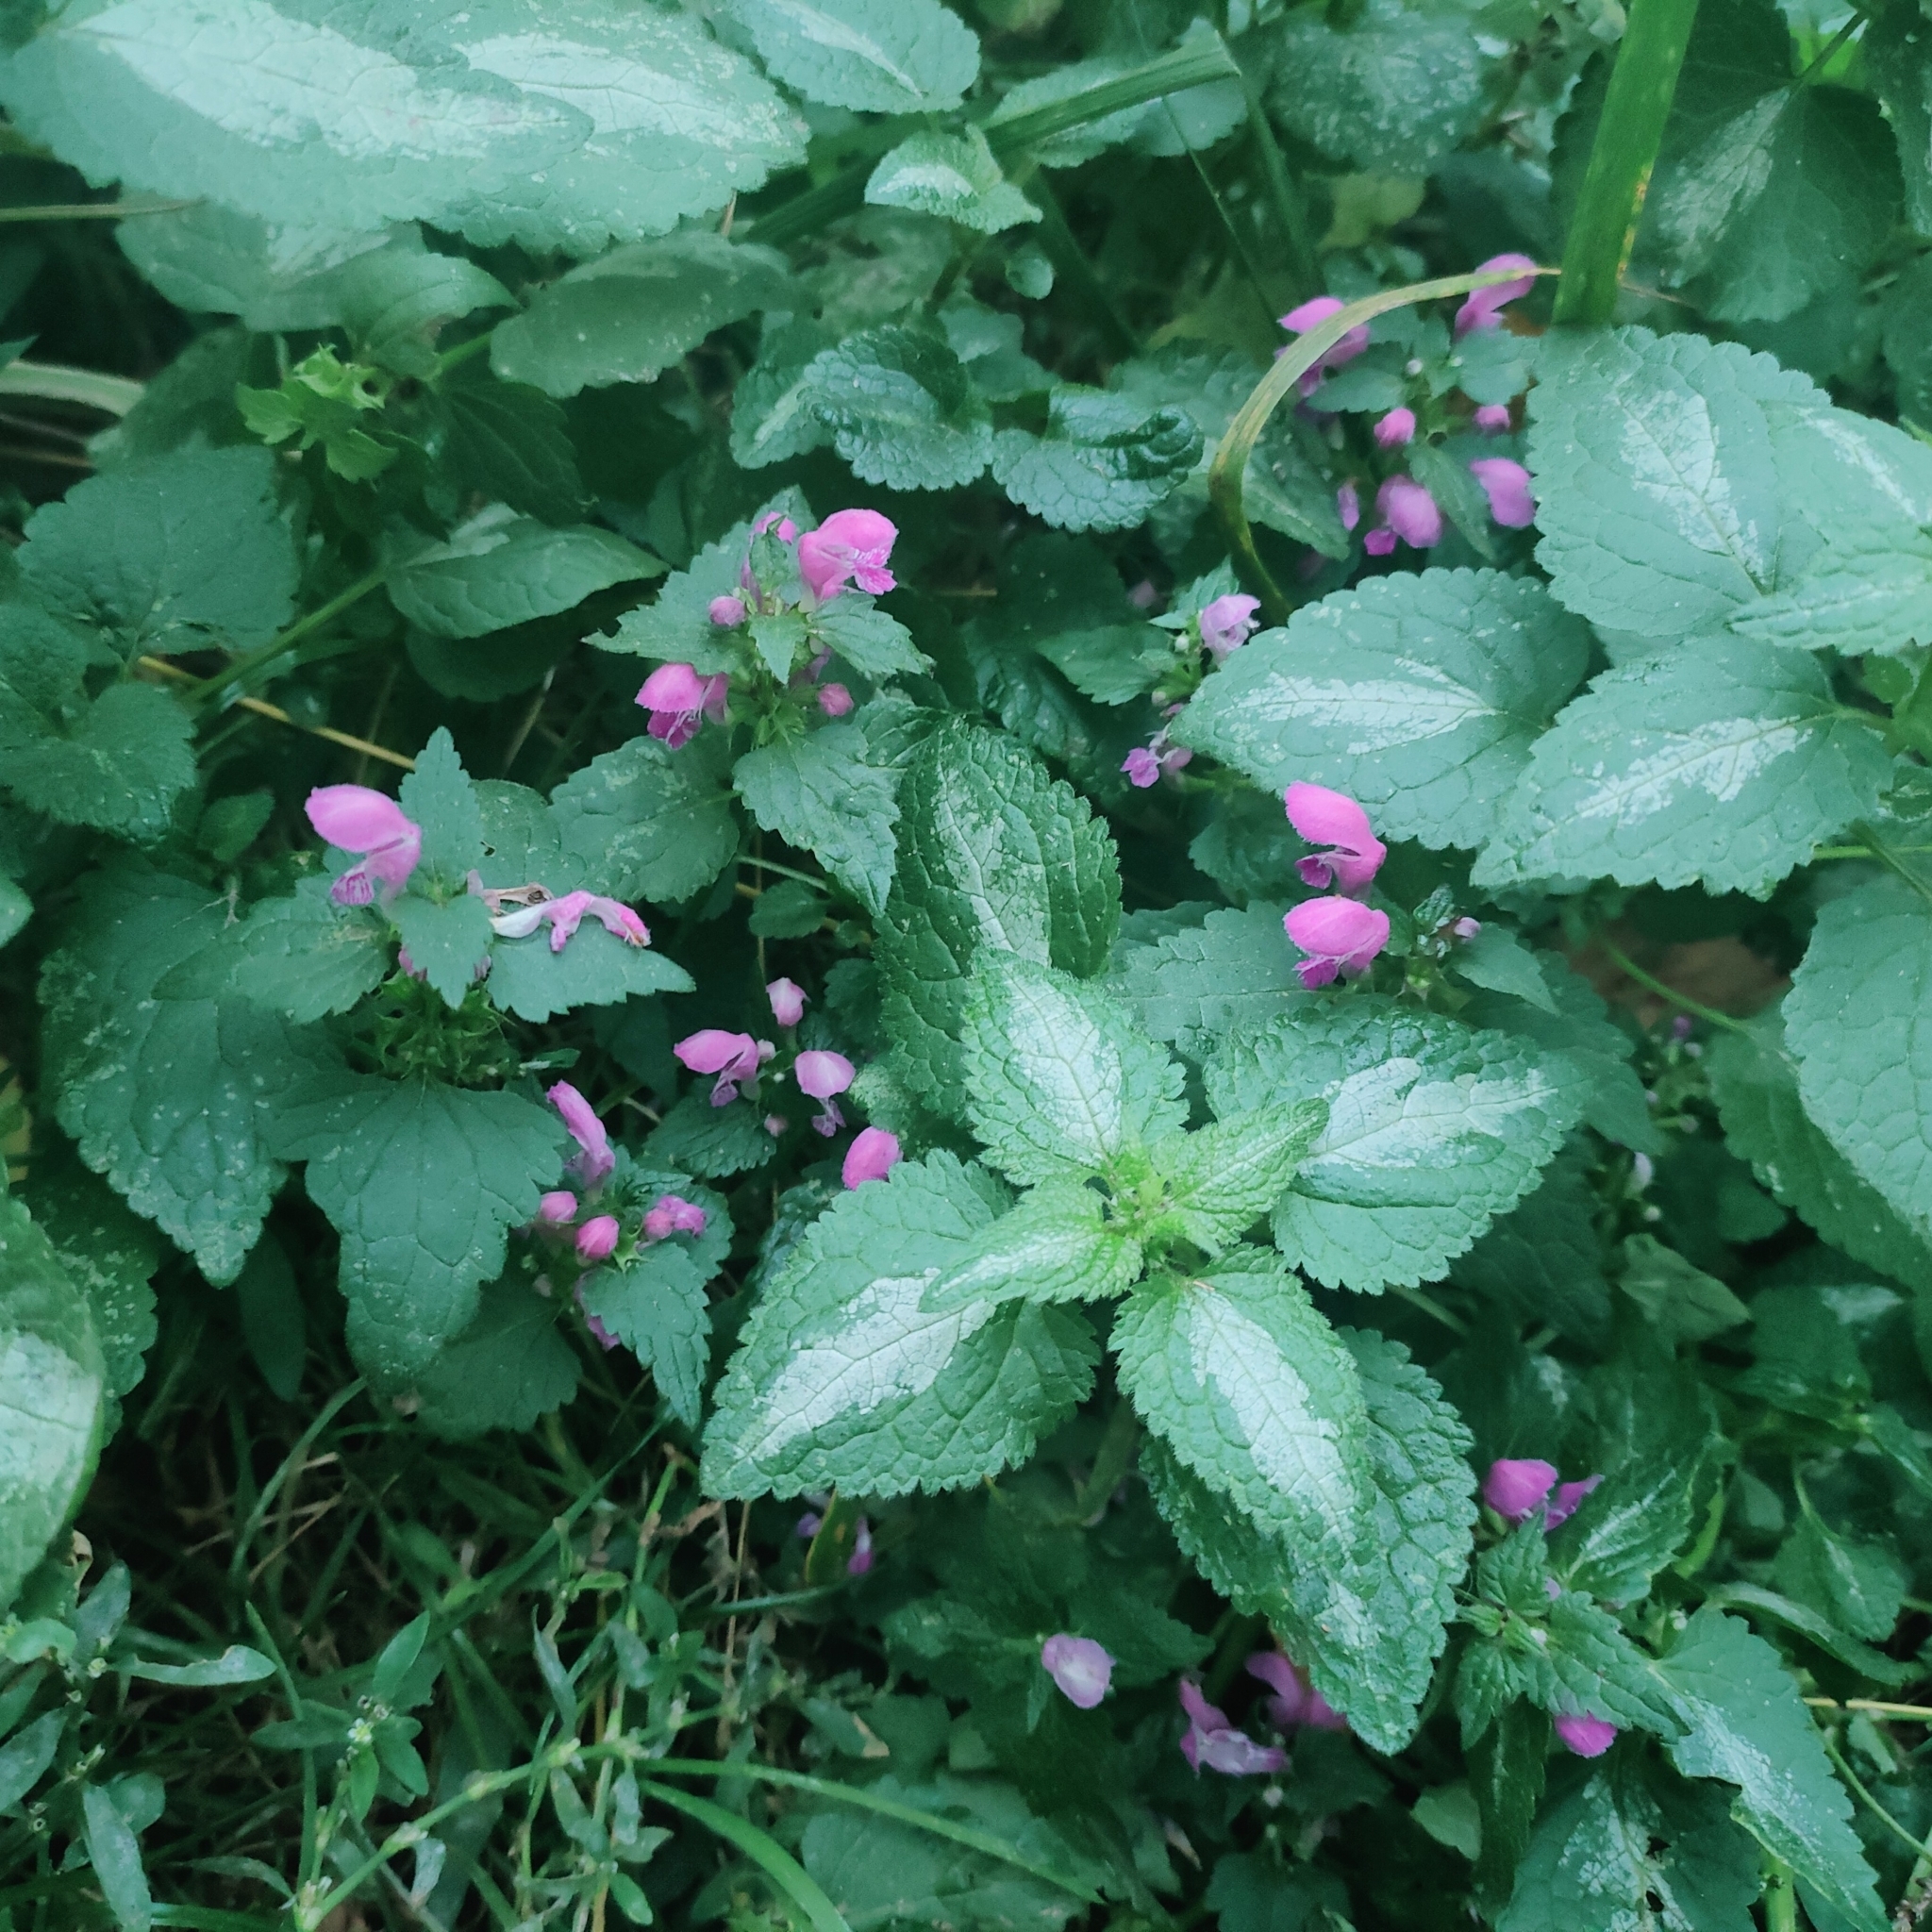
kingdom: Plantae
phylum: Tracheophyta
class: Magnoliopsida
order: Lamiales
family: Lamiaceae
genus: Lamium
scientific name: Lamium maculatum
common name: Spotted dead-nettle
